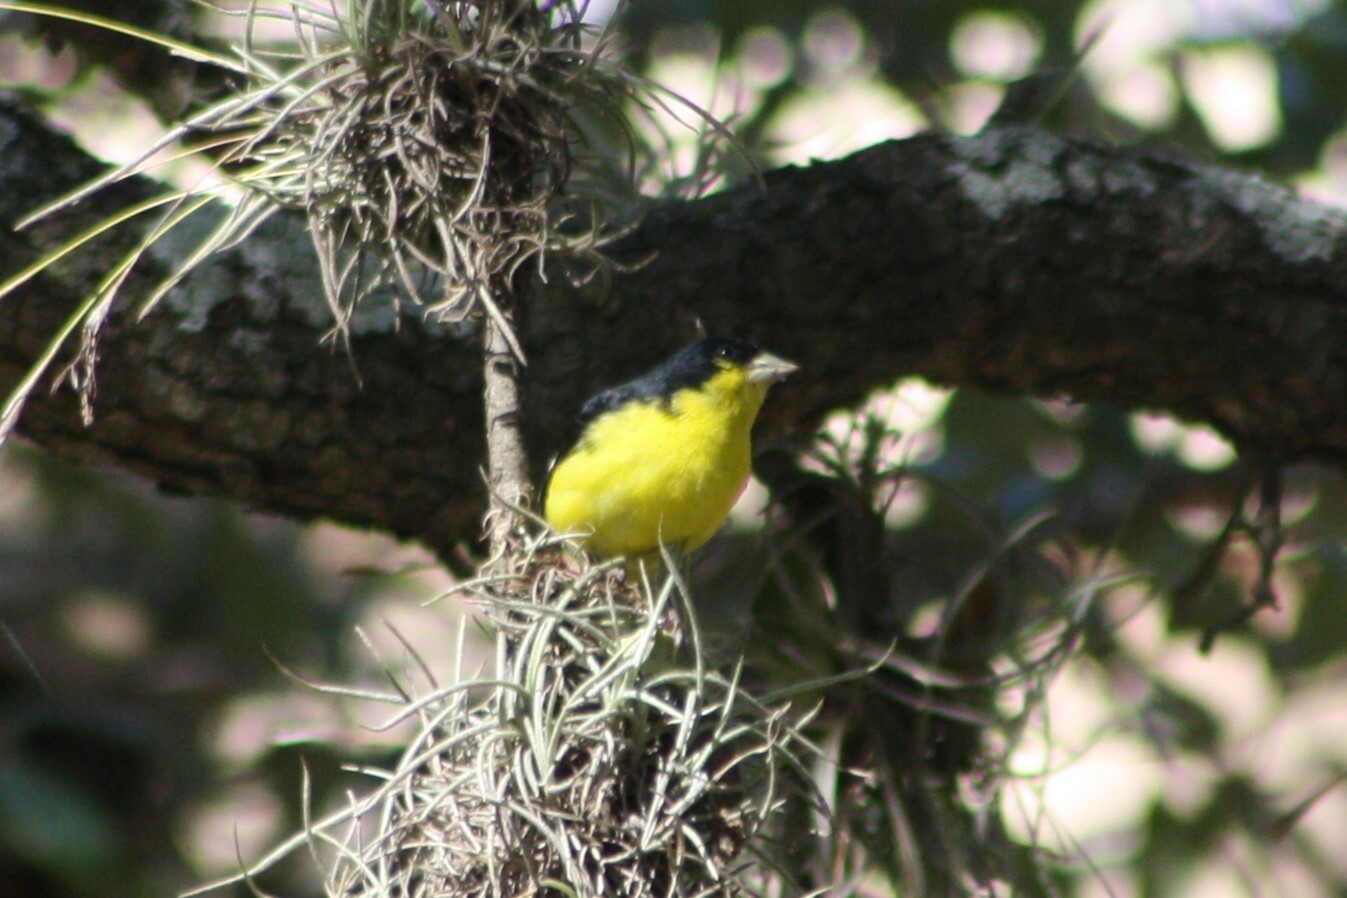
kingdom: Animalia
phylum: Chordata
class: Aves
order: Passeriformes
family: Fringillidae
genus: Spinus
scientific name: Spinus psaltria
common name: Lesser goldfinch
